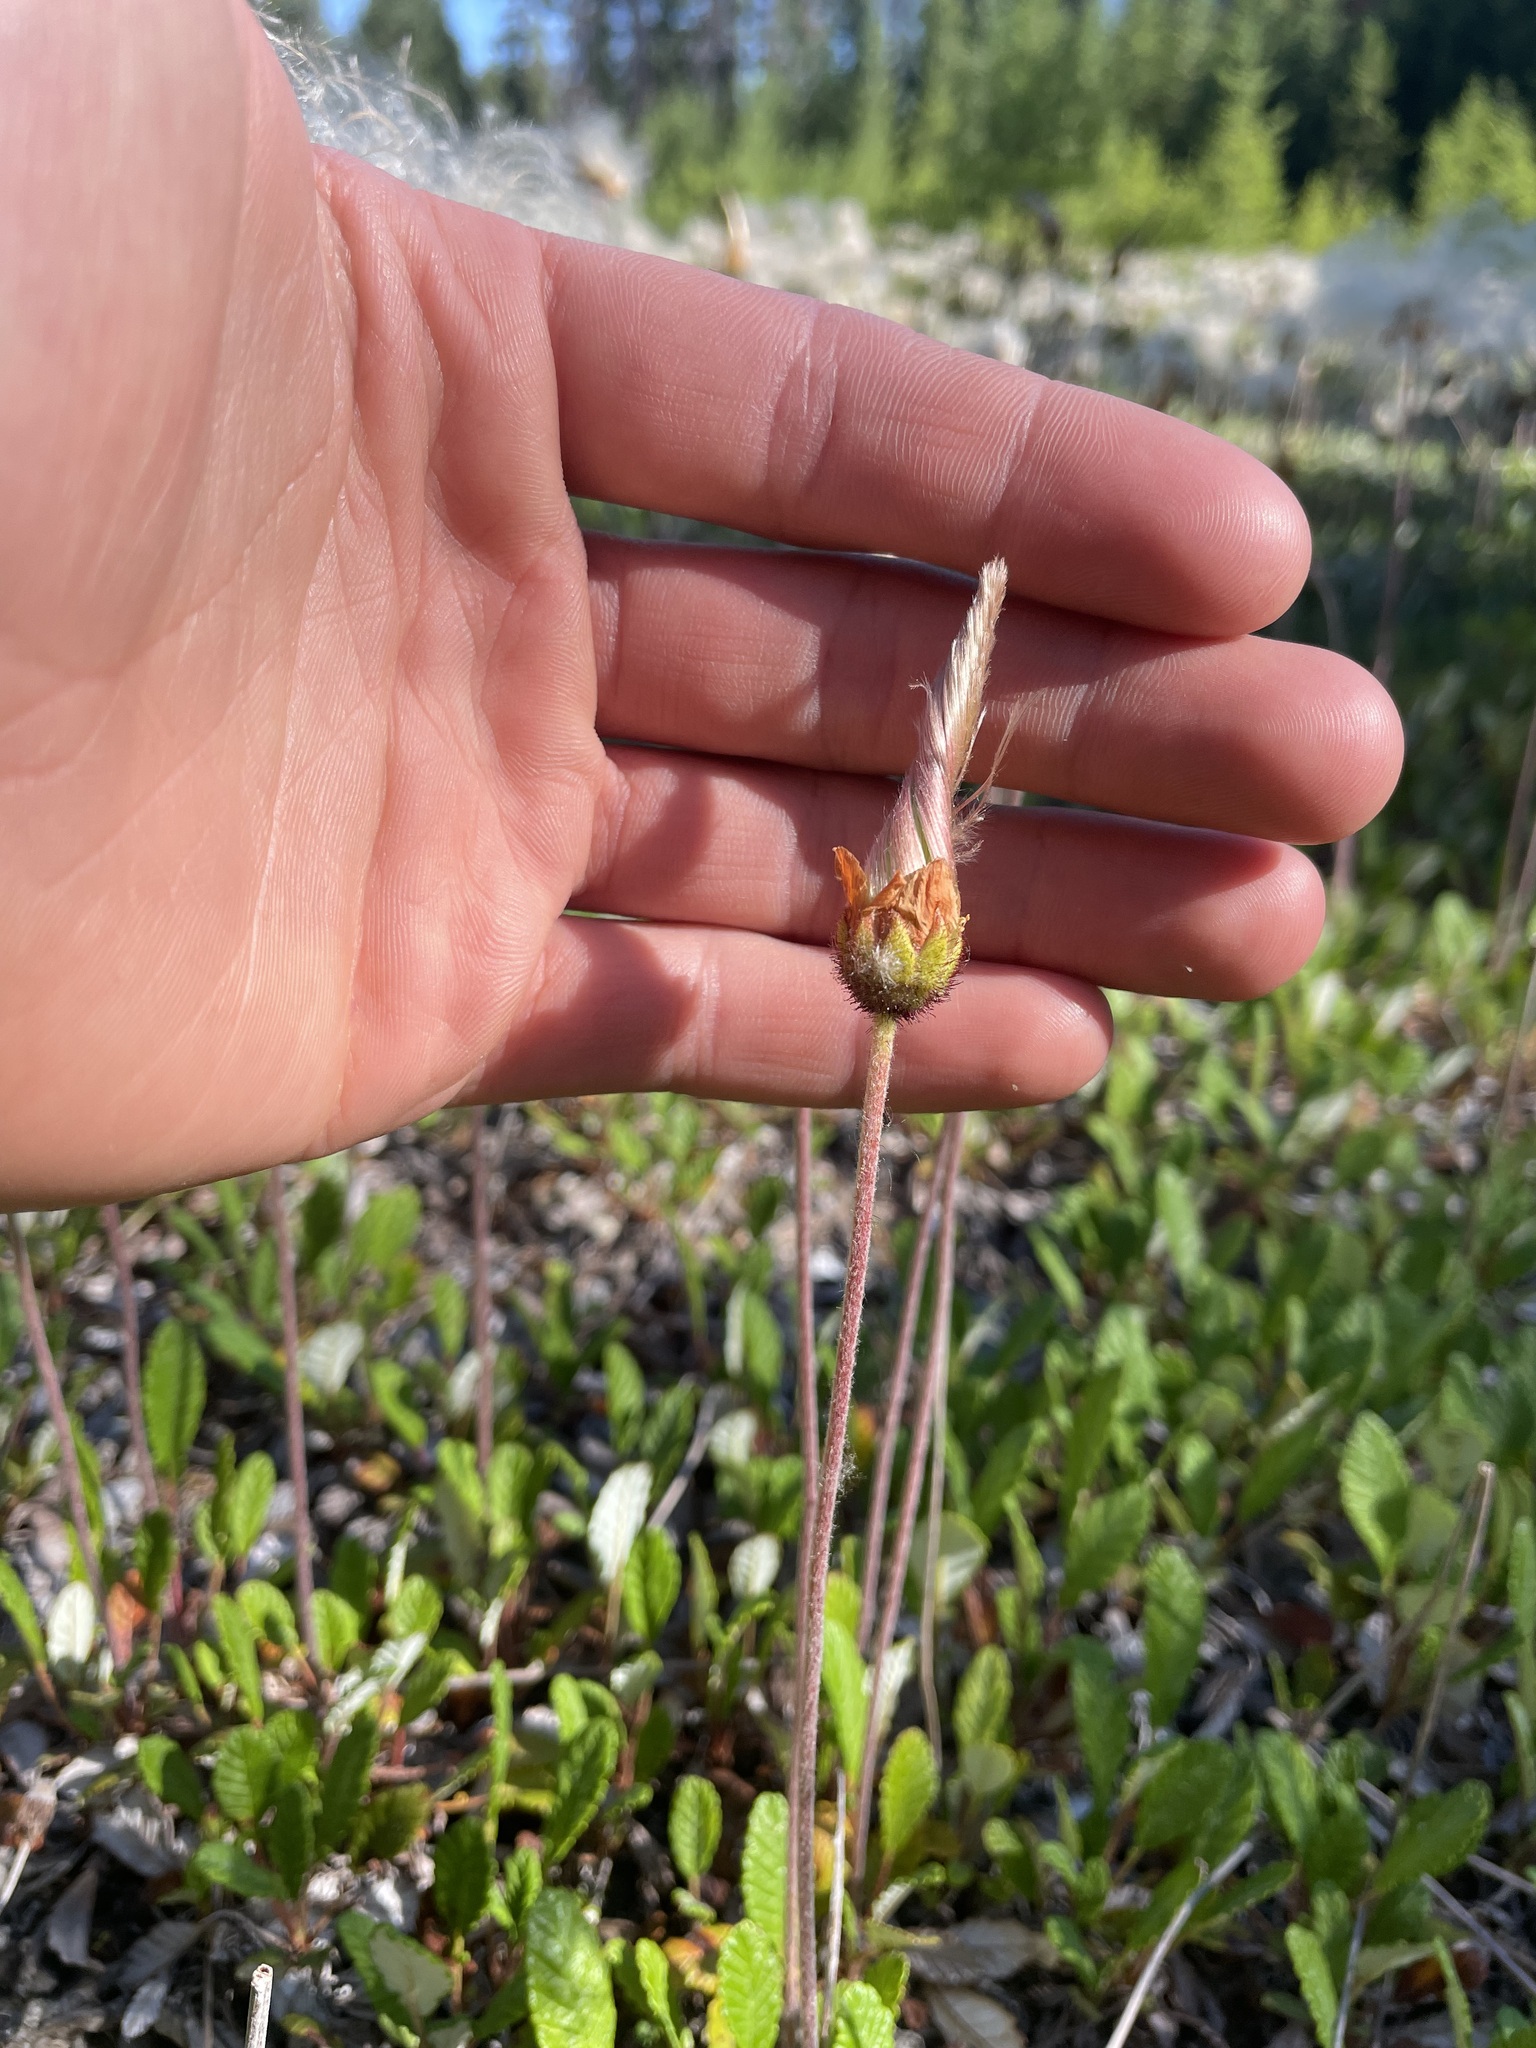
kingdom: Plantae
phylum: Tracheophyta
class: Magnoliopsida
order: Rosales
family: Rosaceae
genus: Dryas
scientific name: Dryas drummondii
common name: Drummond's dryad
